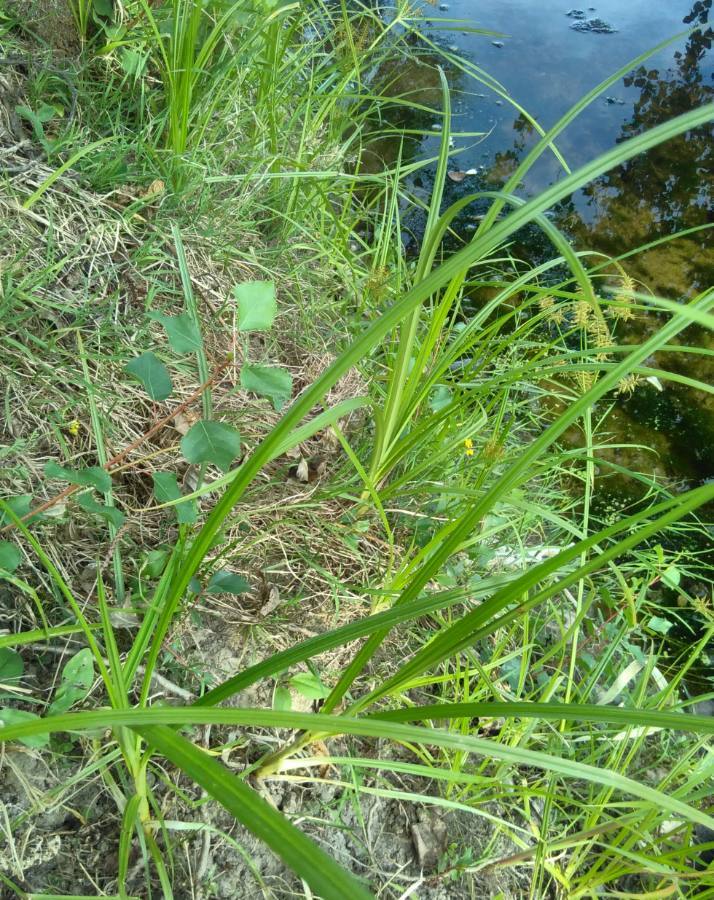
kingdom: Plantae
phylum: Tracheophyta
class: Liliopsida
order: Poales
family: Cyperaceae
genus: Cyperus
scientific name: Cyperus esculentus
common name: Yellow nutsedge
